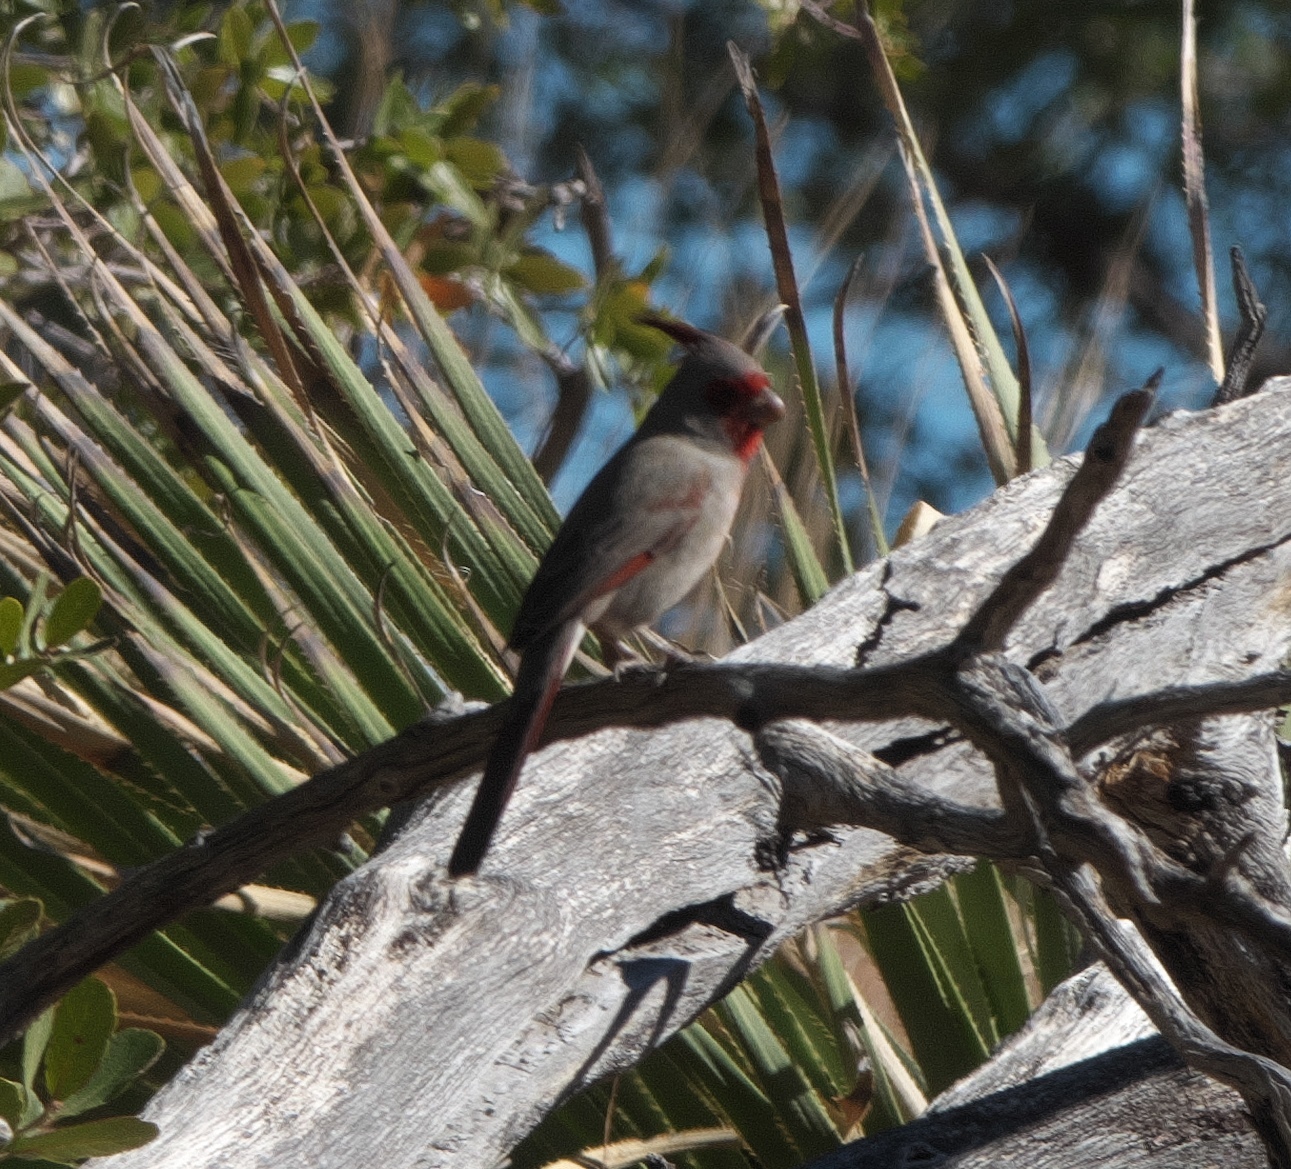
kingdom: Animalia
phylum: Chordata
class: Aves
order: Passeriformes
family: Cardinalidae
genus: Cardinalis
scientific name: Cardinalis sinuatus
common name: Pyrrhuloxia
